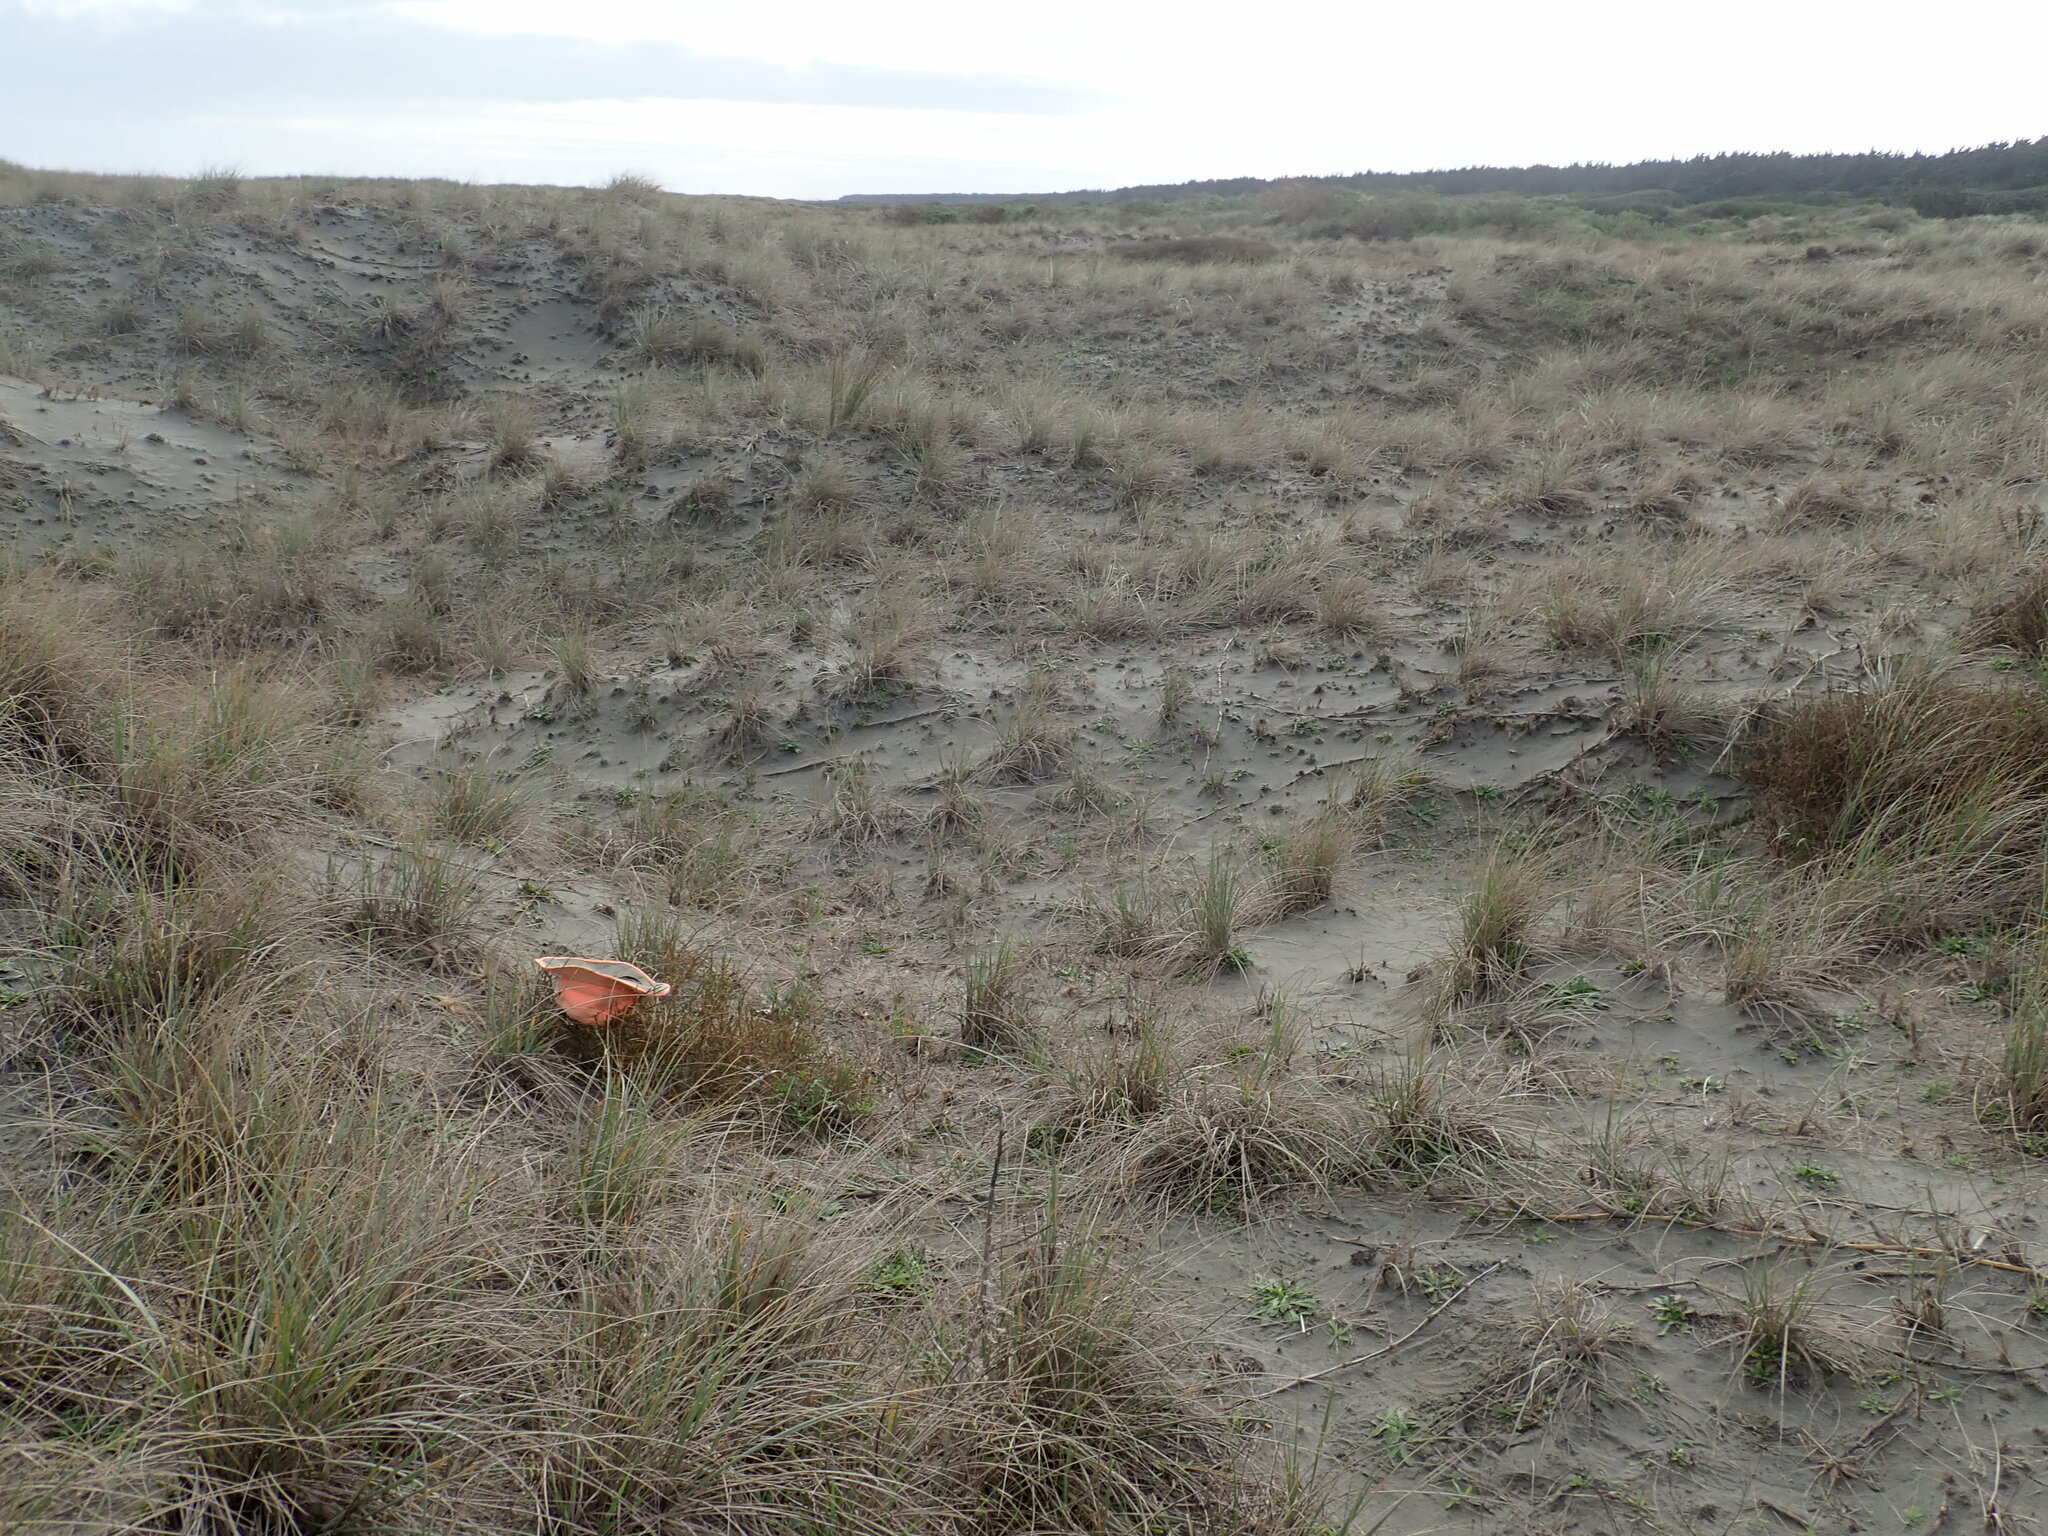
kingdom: Plantae
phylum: Tracheophyta
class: Magnoliopsida
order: Gentianales
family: Rubiaceae
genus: Coprosma
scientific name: Coprosma acerosa
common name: Sand coprosma
